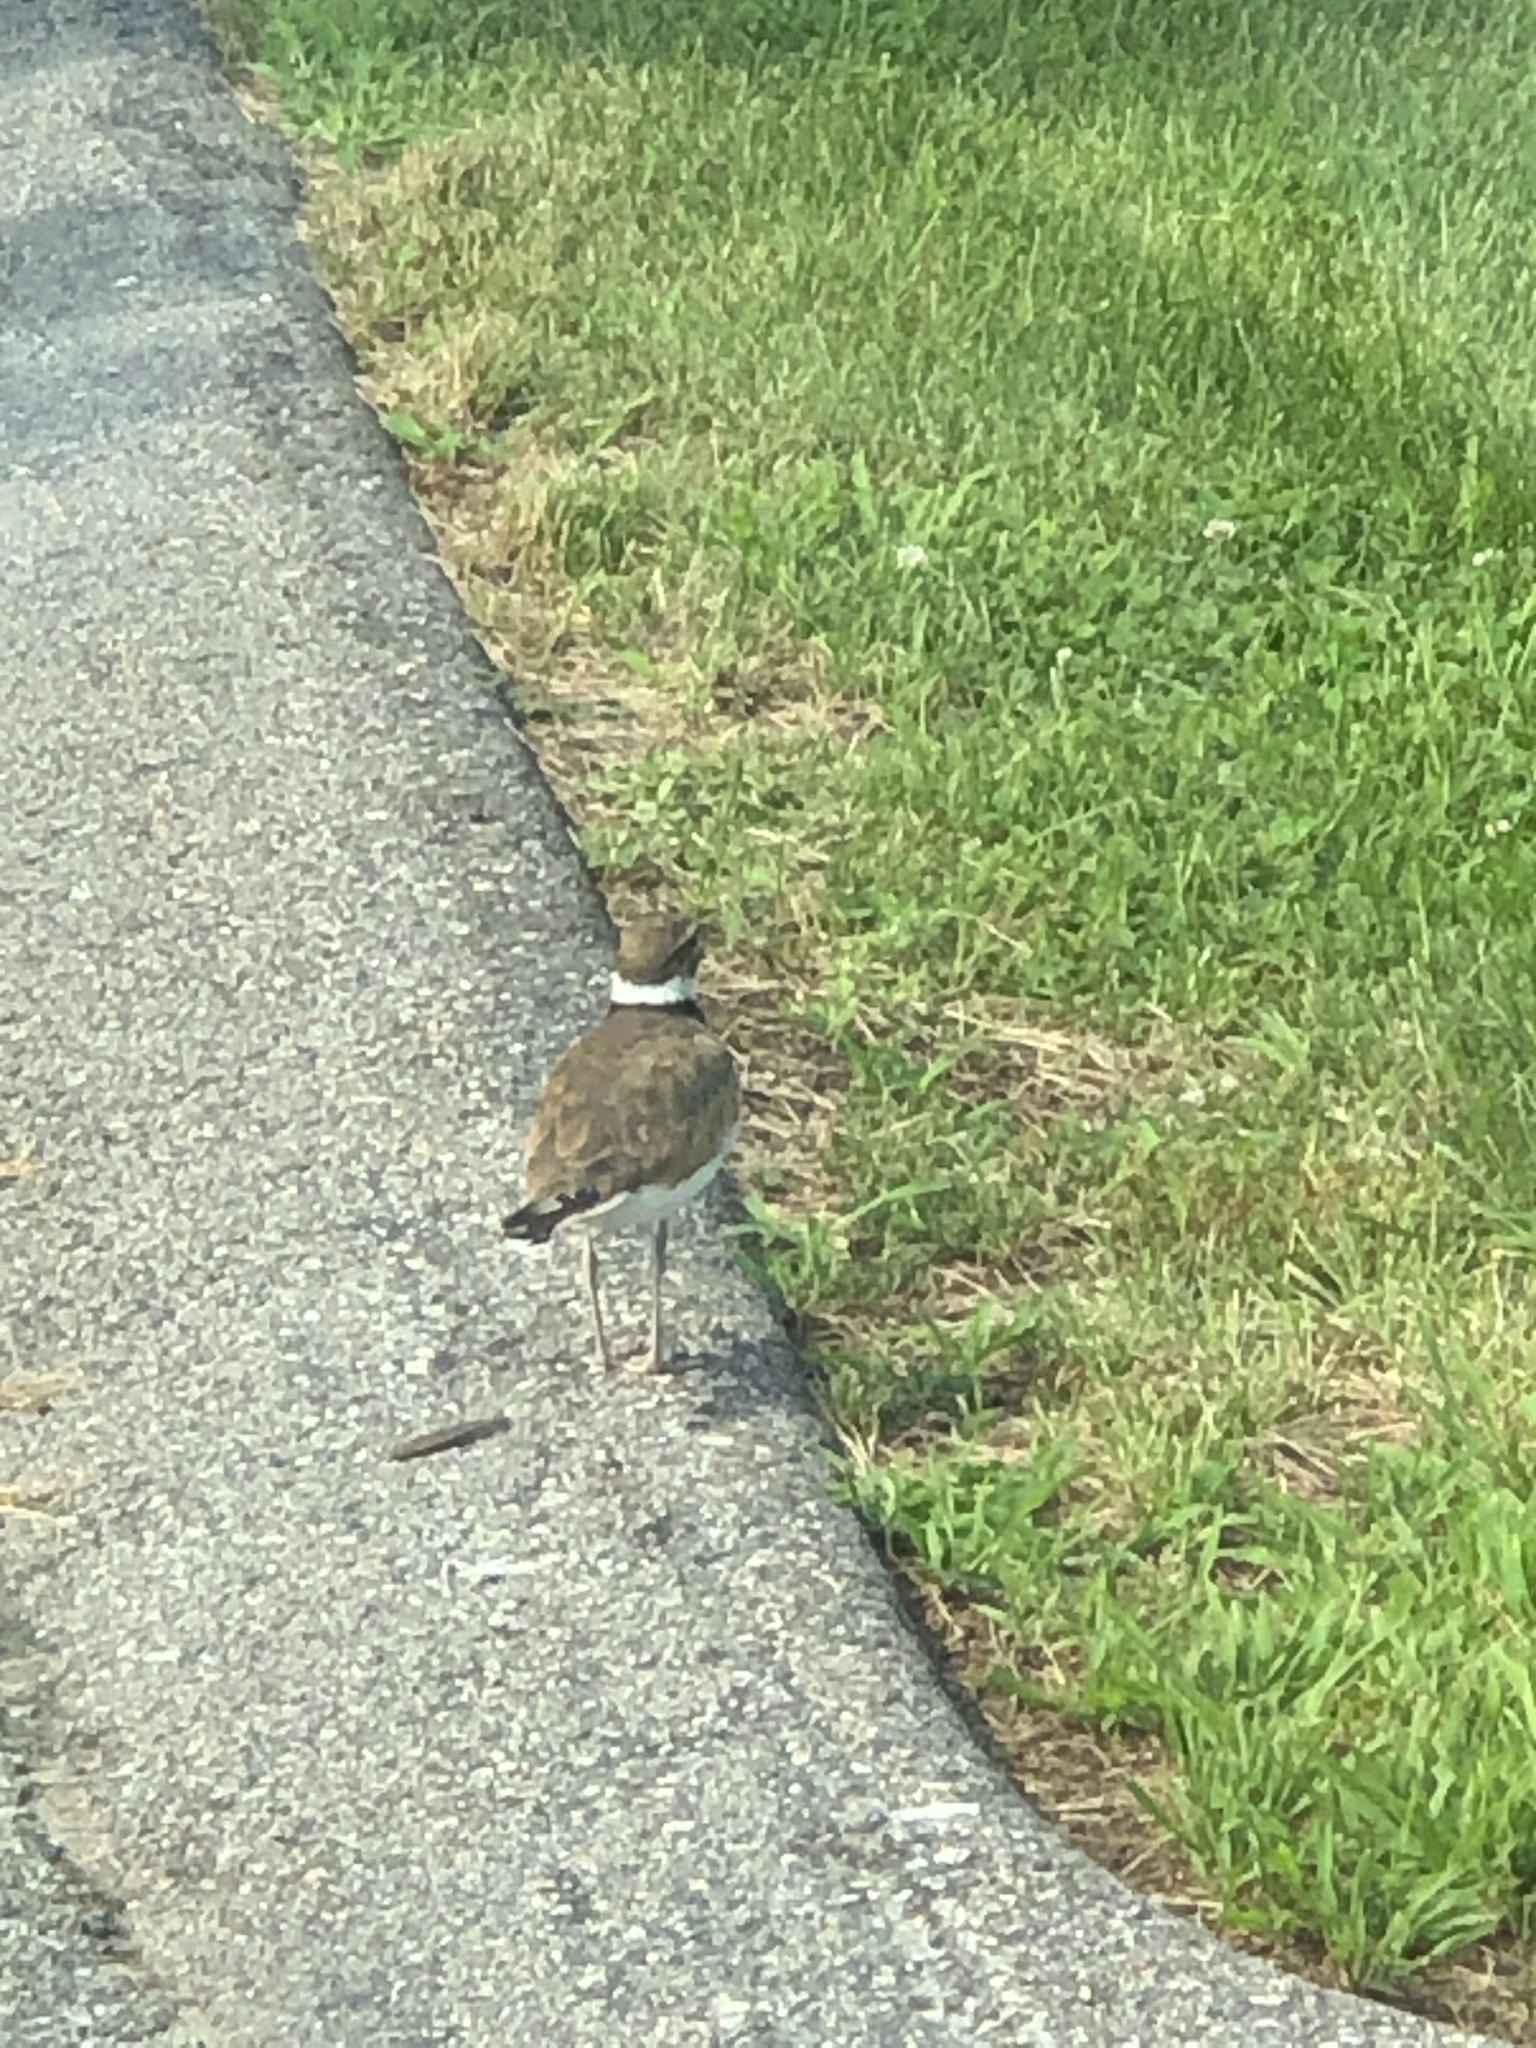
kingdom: Animalia
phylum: Chordata
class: Aves
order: Charadriiformes
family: Charadriidae
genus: Charadrius
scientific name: Charadrius vociferus
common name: Killdeer
